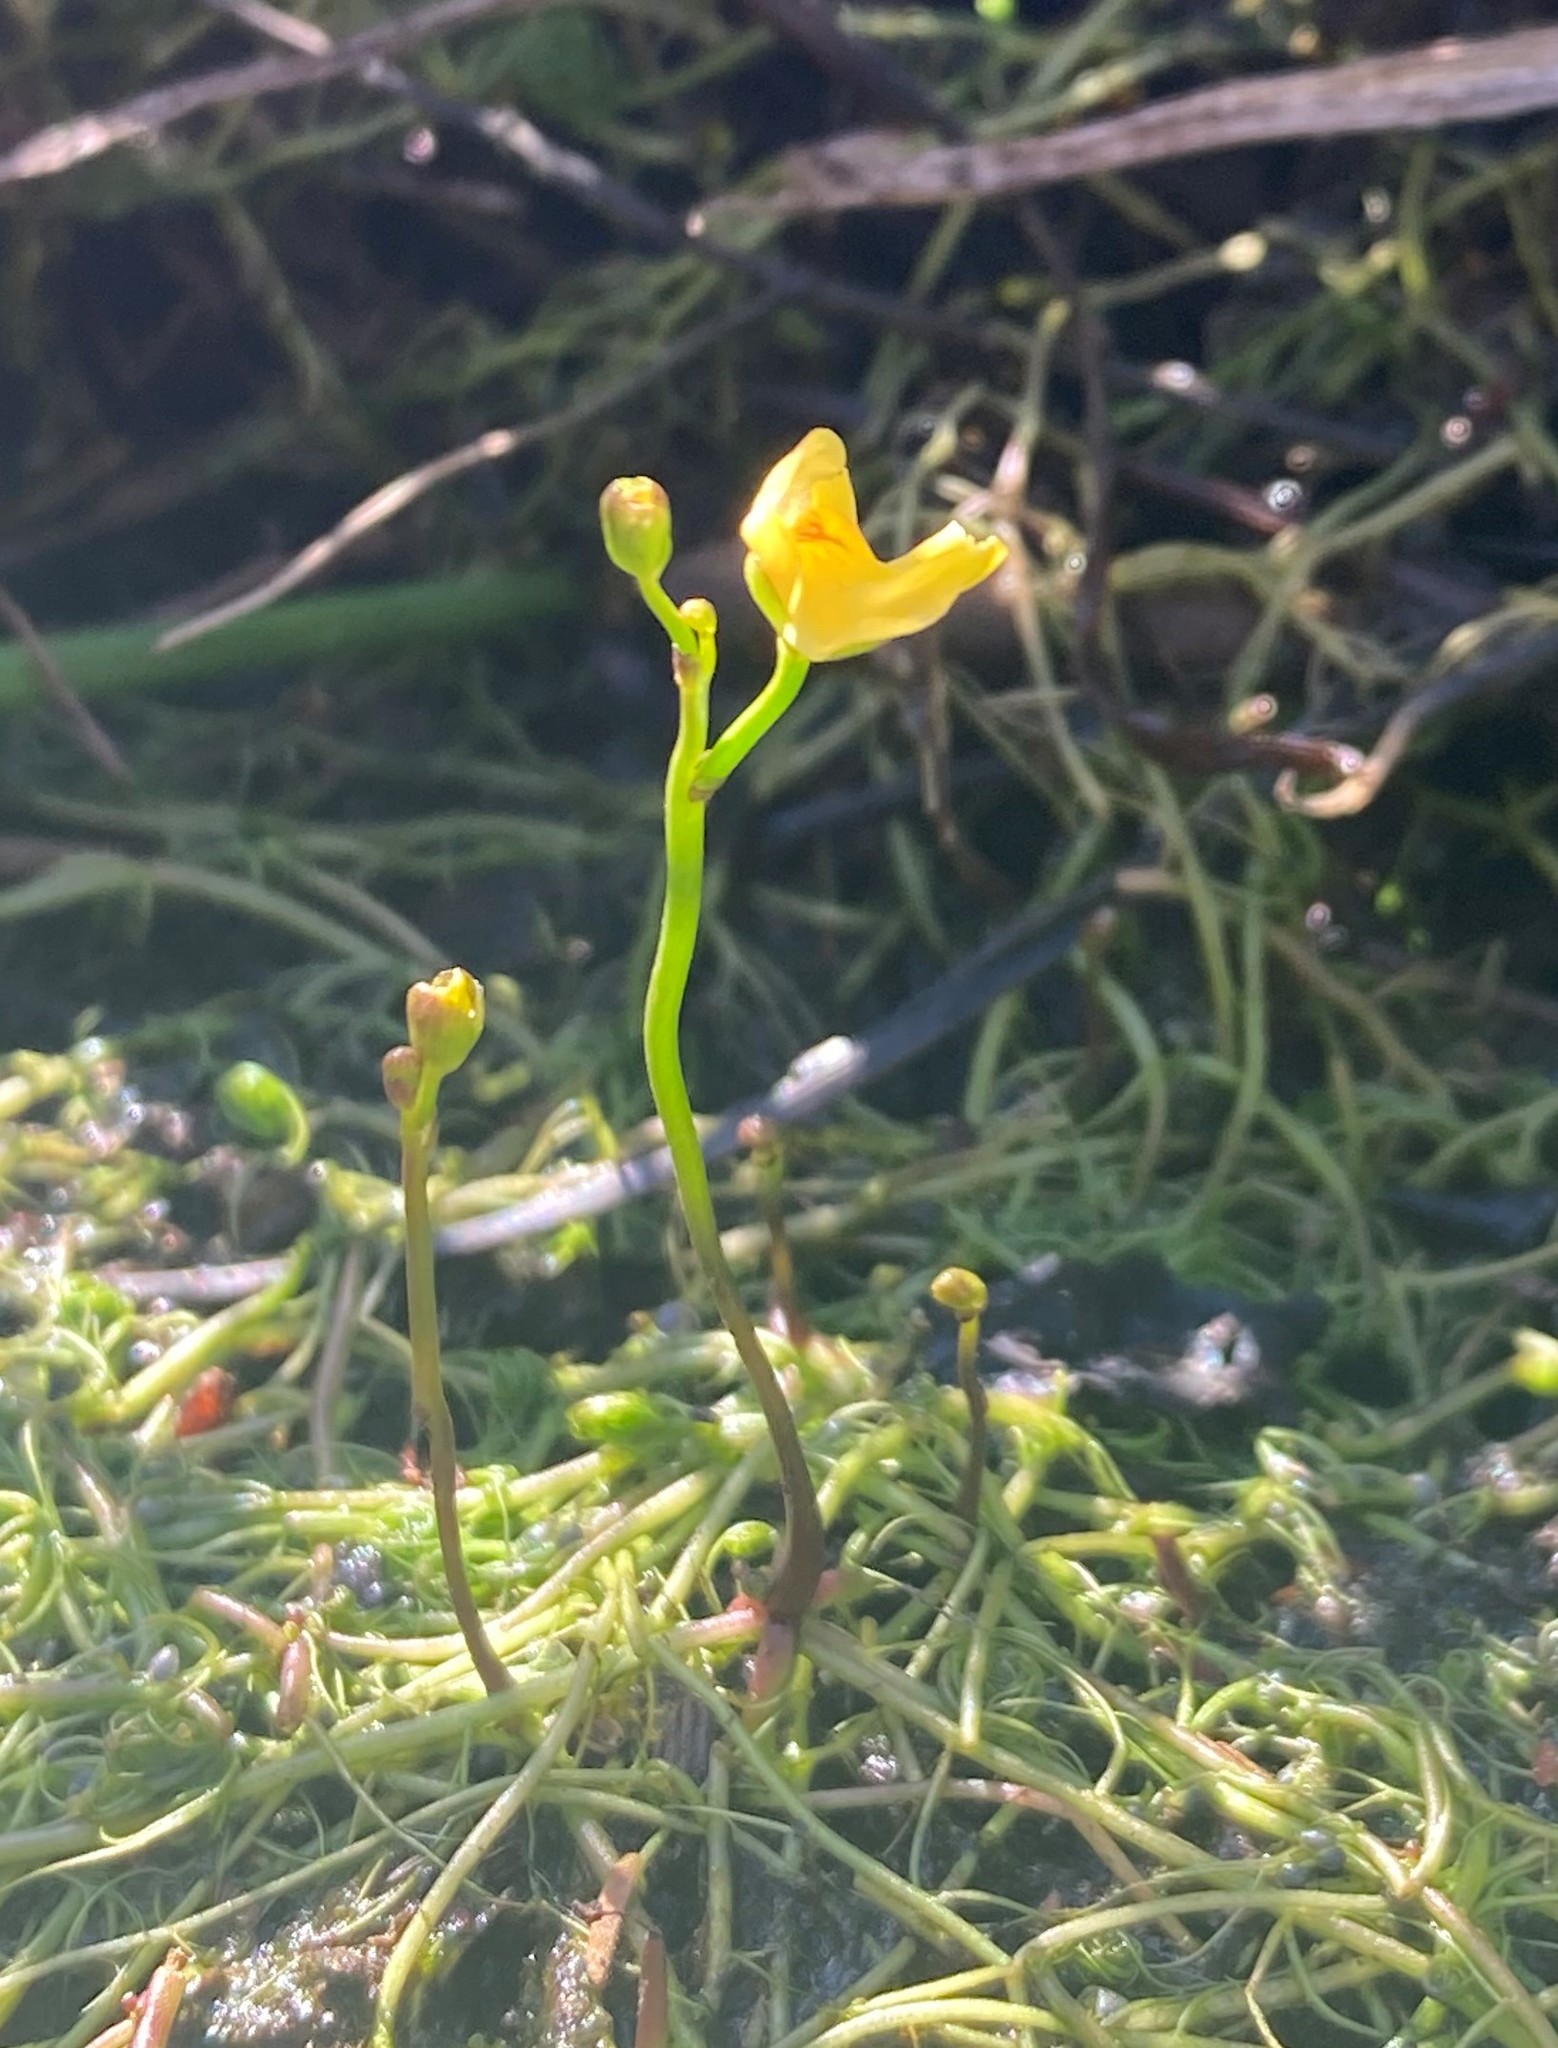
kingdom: Plantae
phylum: Tracheophyta
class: Magnoliopsida
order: Lamiales
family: Lentibulariaceae
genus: Utricularia
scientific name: Utricularia gibba
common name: Humped bladderwort
